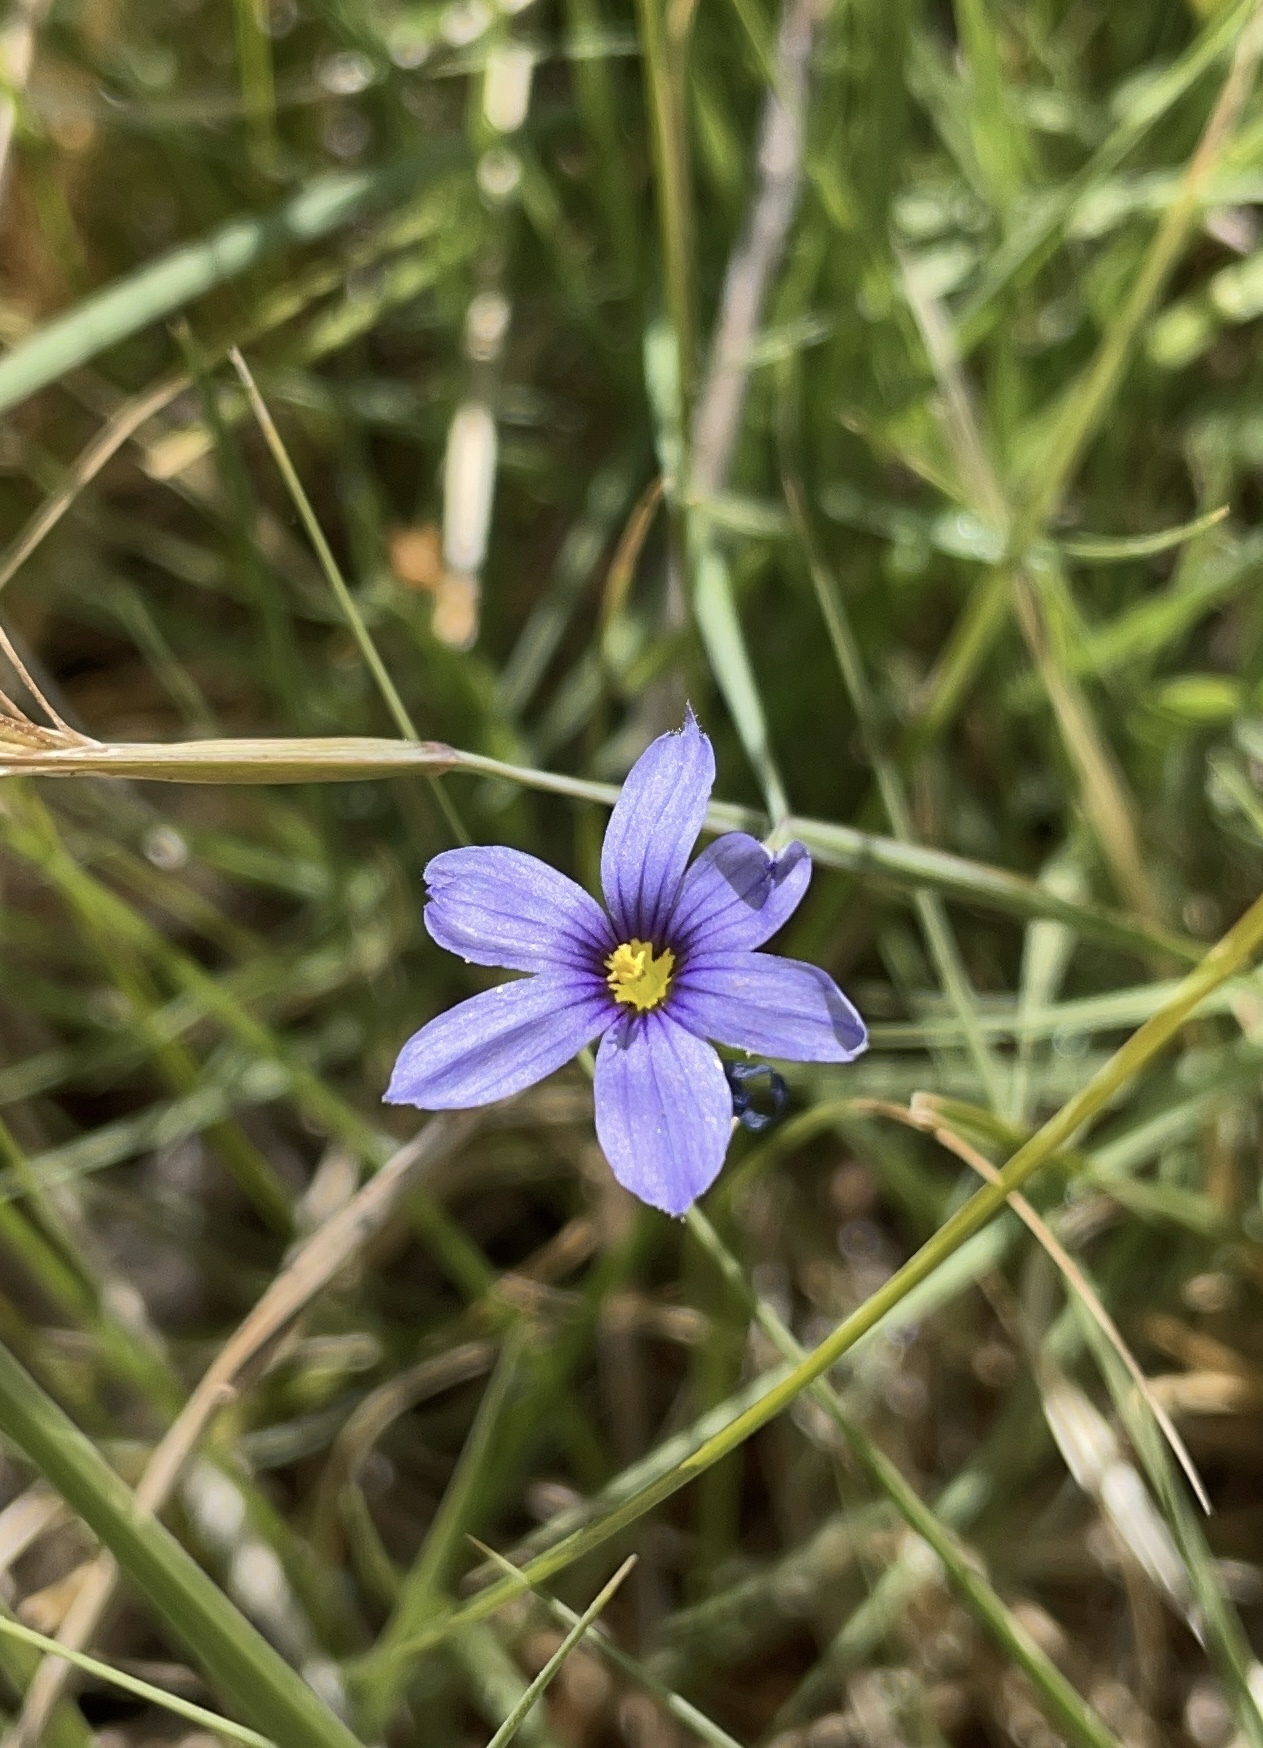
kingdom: Plantae
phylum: Tracheophyta
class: Liliopsida
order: Asparagales
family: Iridaceae
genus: Sisyrinchium
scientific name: Sisyrinchium bellum
